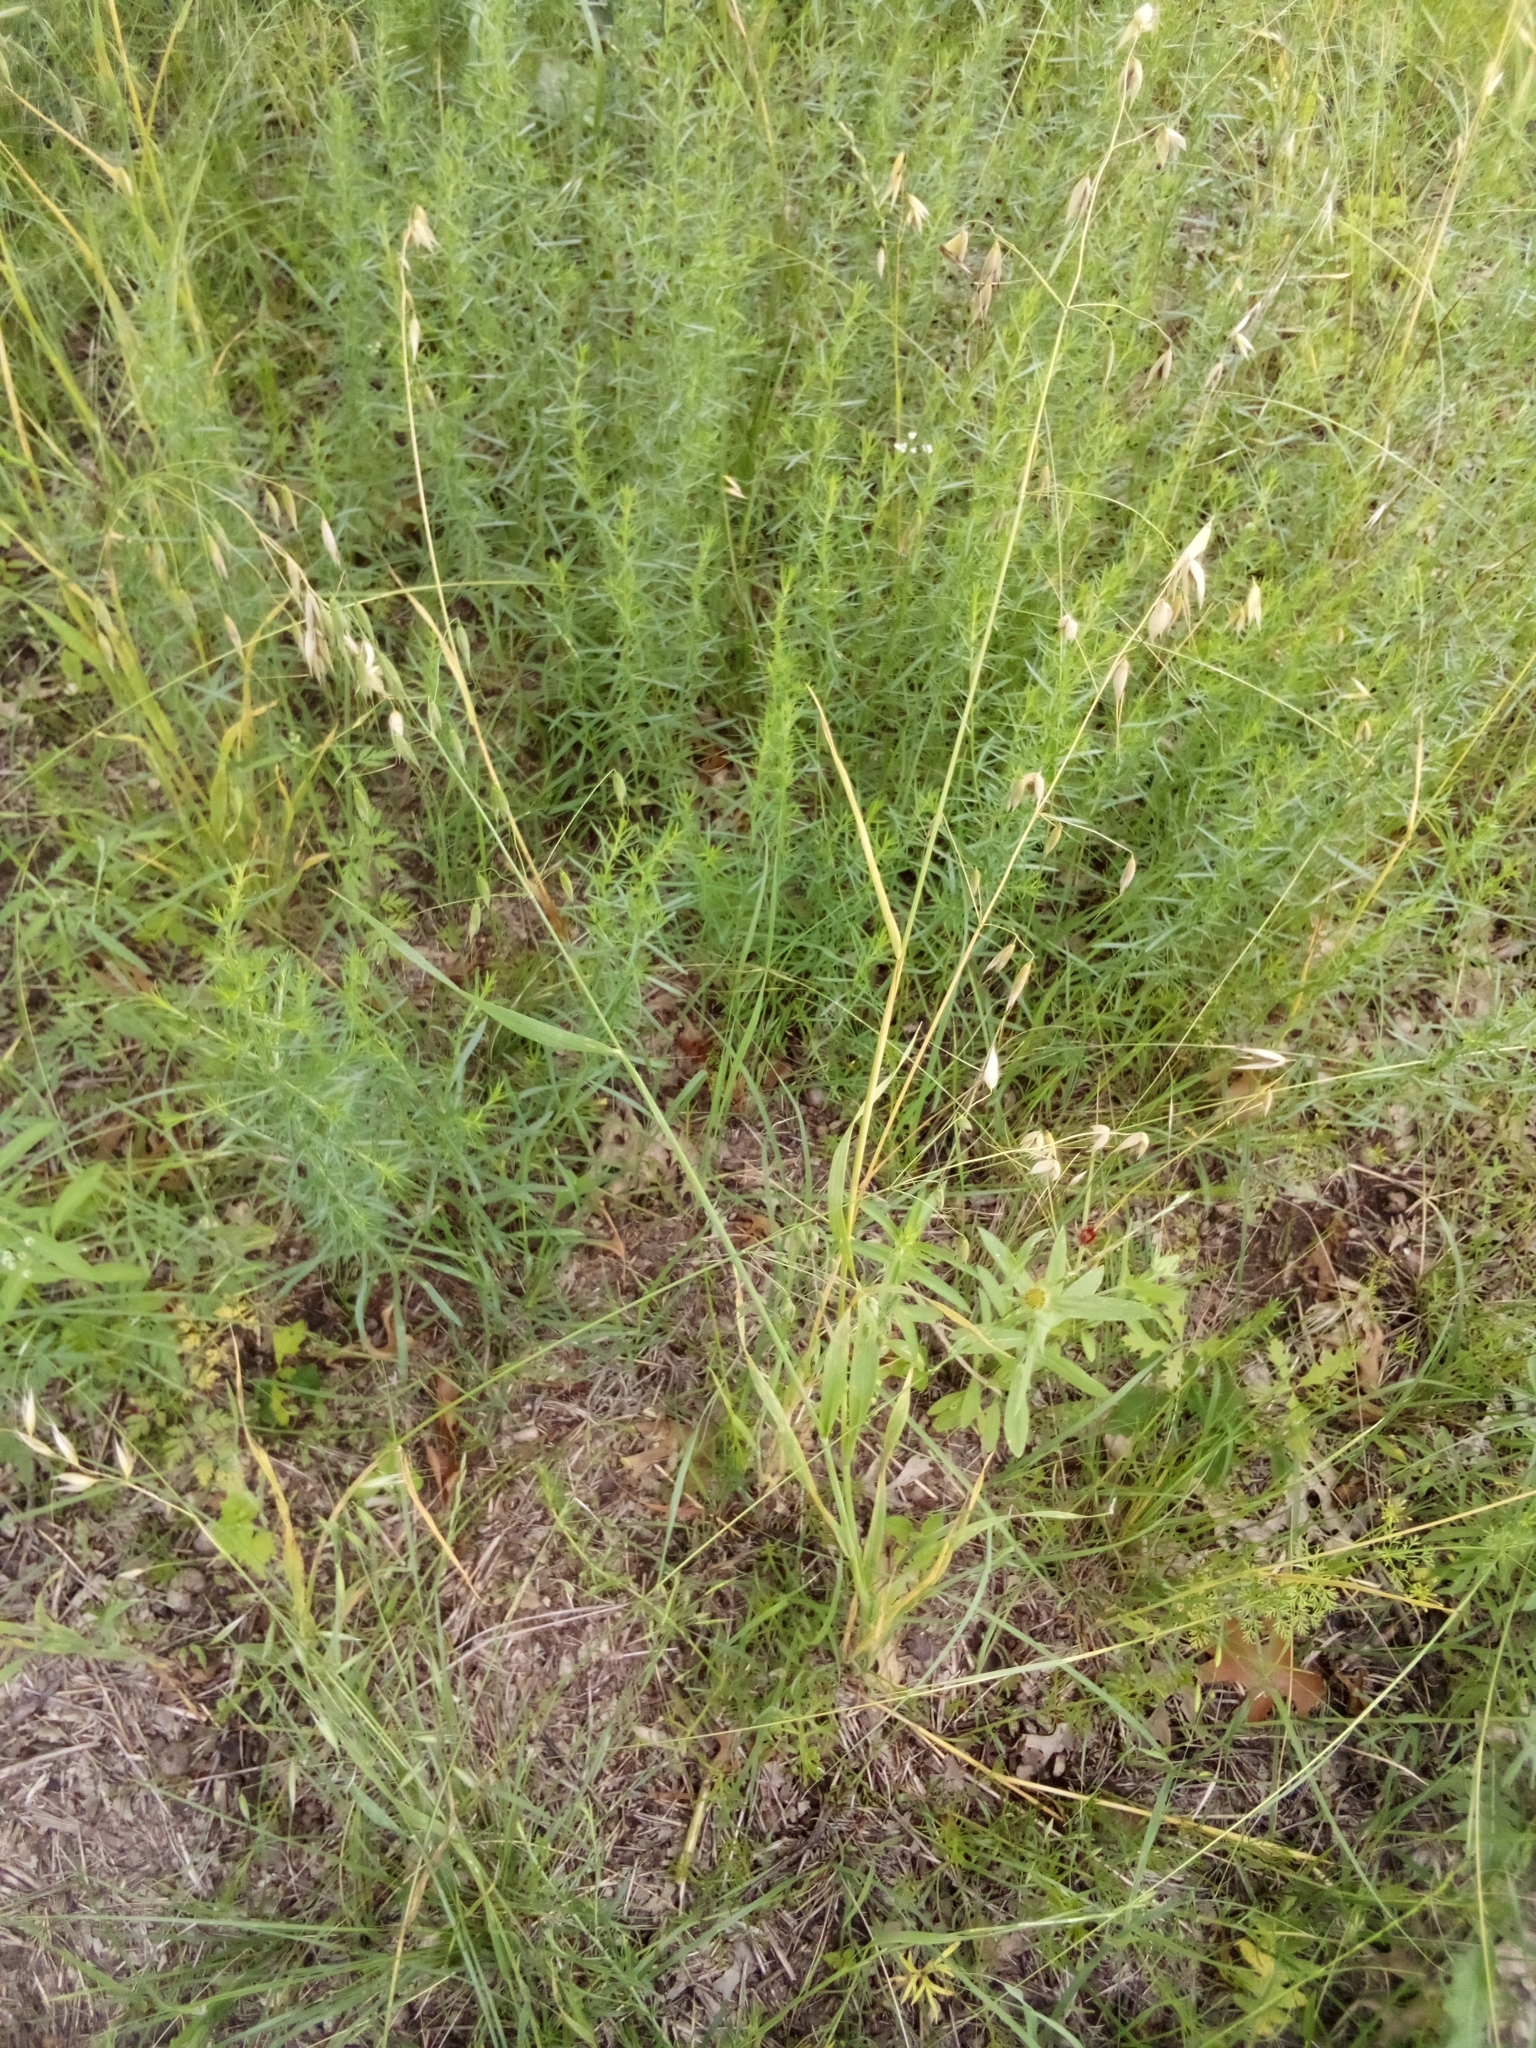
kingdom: Plantae
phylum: Tracheophyta
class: Liliopsida
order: Poales
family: Poaceae
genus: Avena
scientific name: Avena fatua
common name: Wild oat
